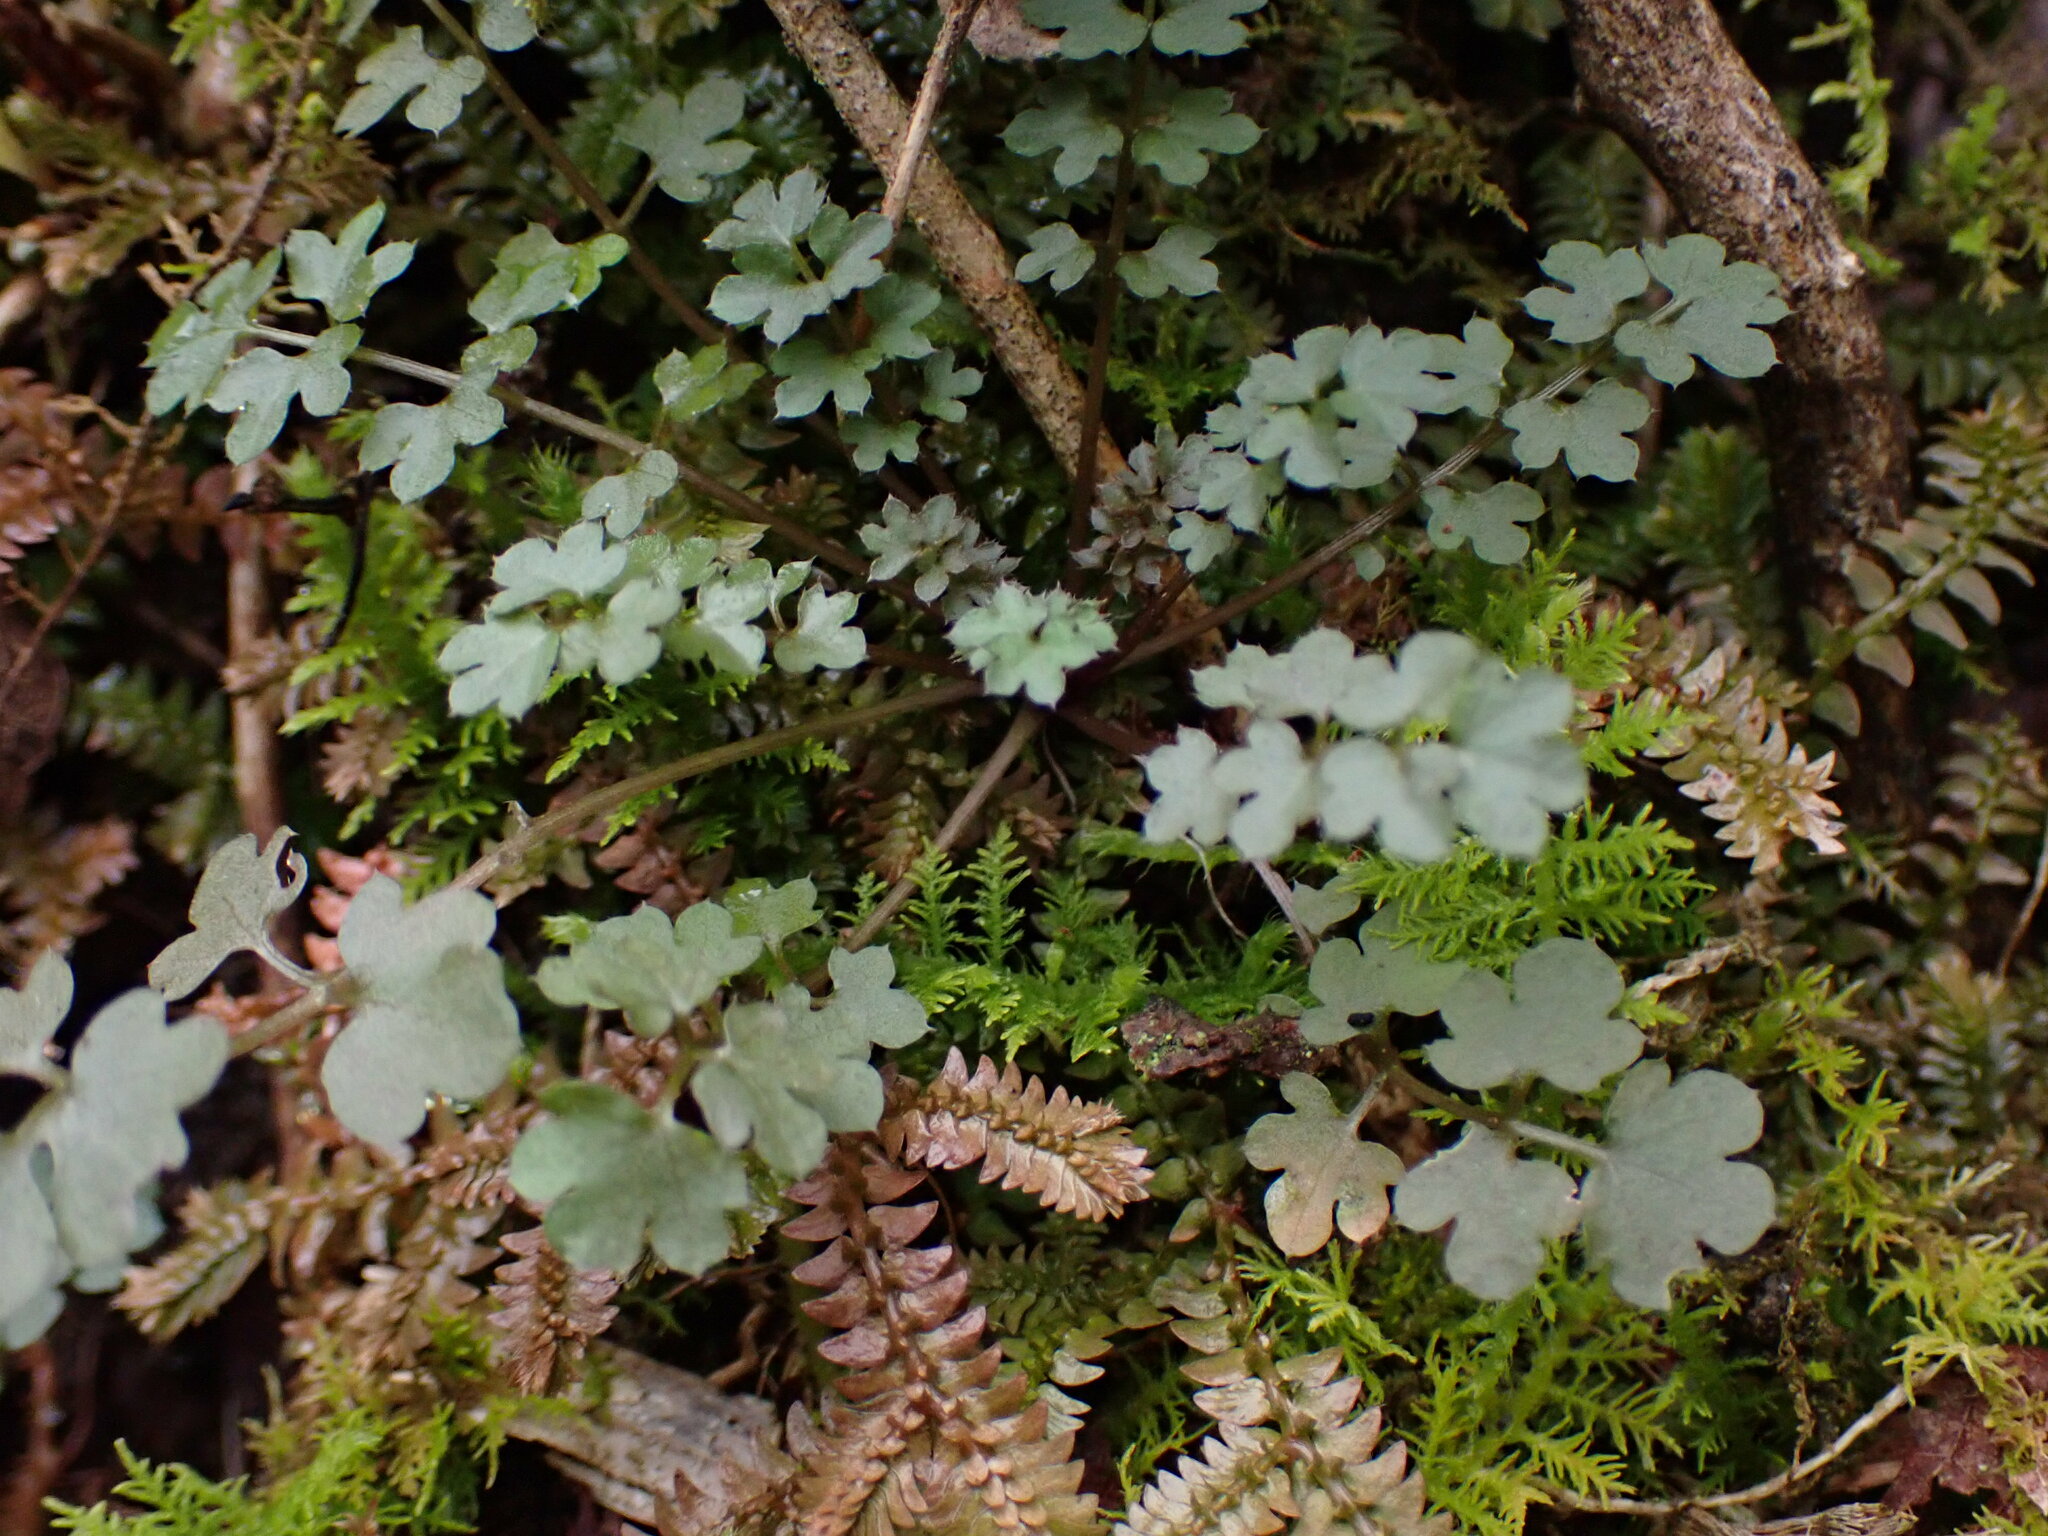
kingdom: Plantae
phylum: Tracheophyta
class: Magnoliopsida
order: Brassicales
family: Brassicaceae
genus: Cardamine
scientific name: Cardamine impatiens
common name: Narrow-leaved bitter-cress
